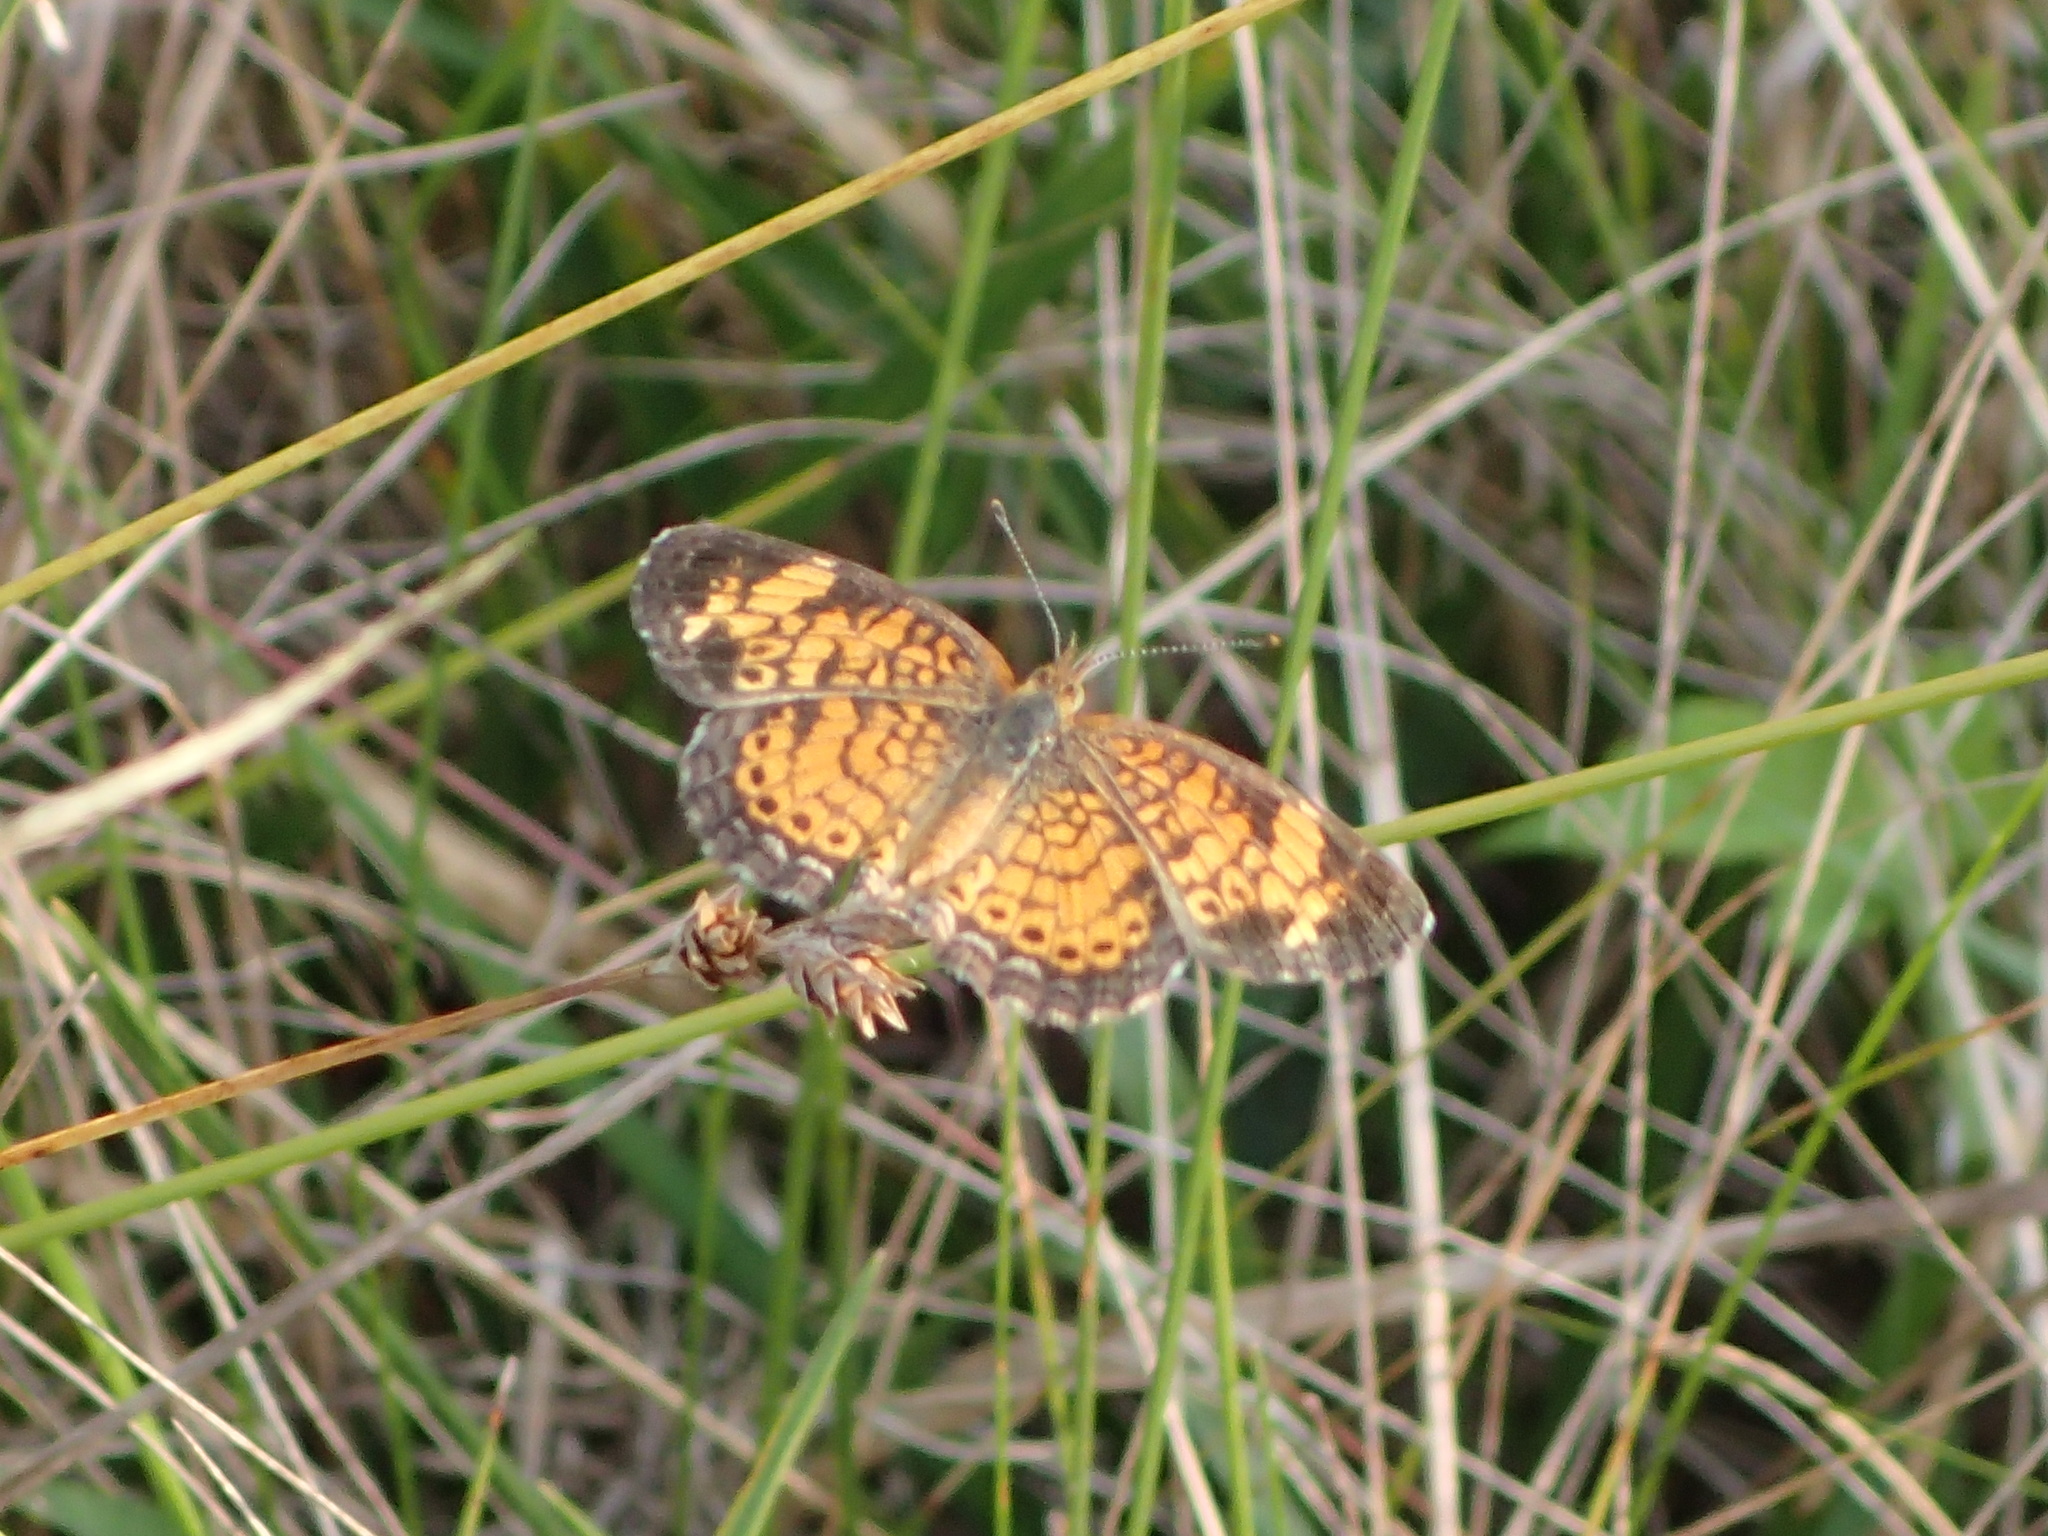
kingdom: Animalia
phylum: Arthropoda
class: Insecta
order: Lepidoptera
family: Nymphalidae
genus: Phyciodes
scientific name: Phyciodes tharos
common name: Pearl crescent
